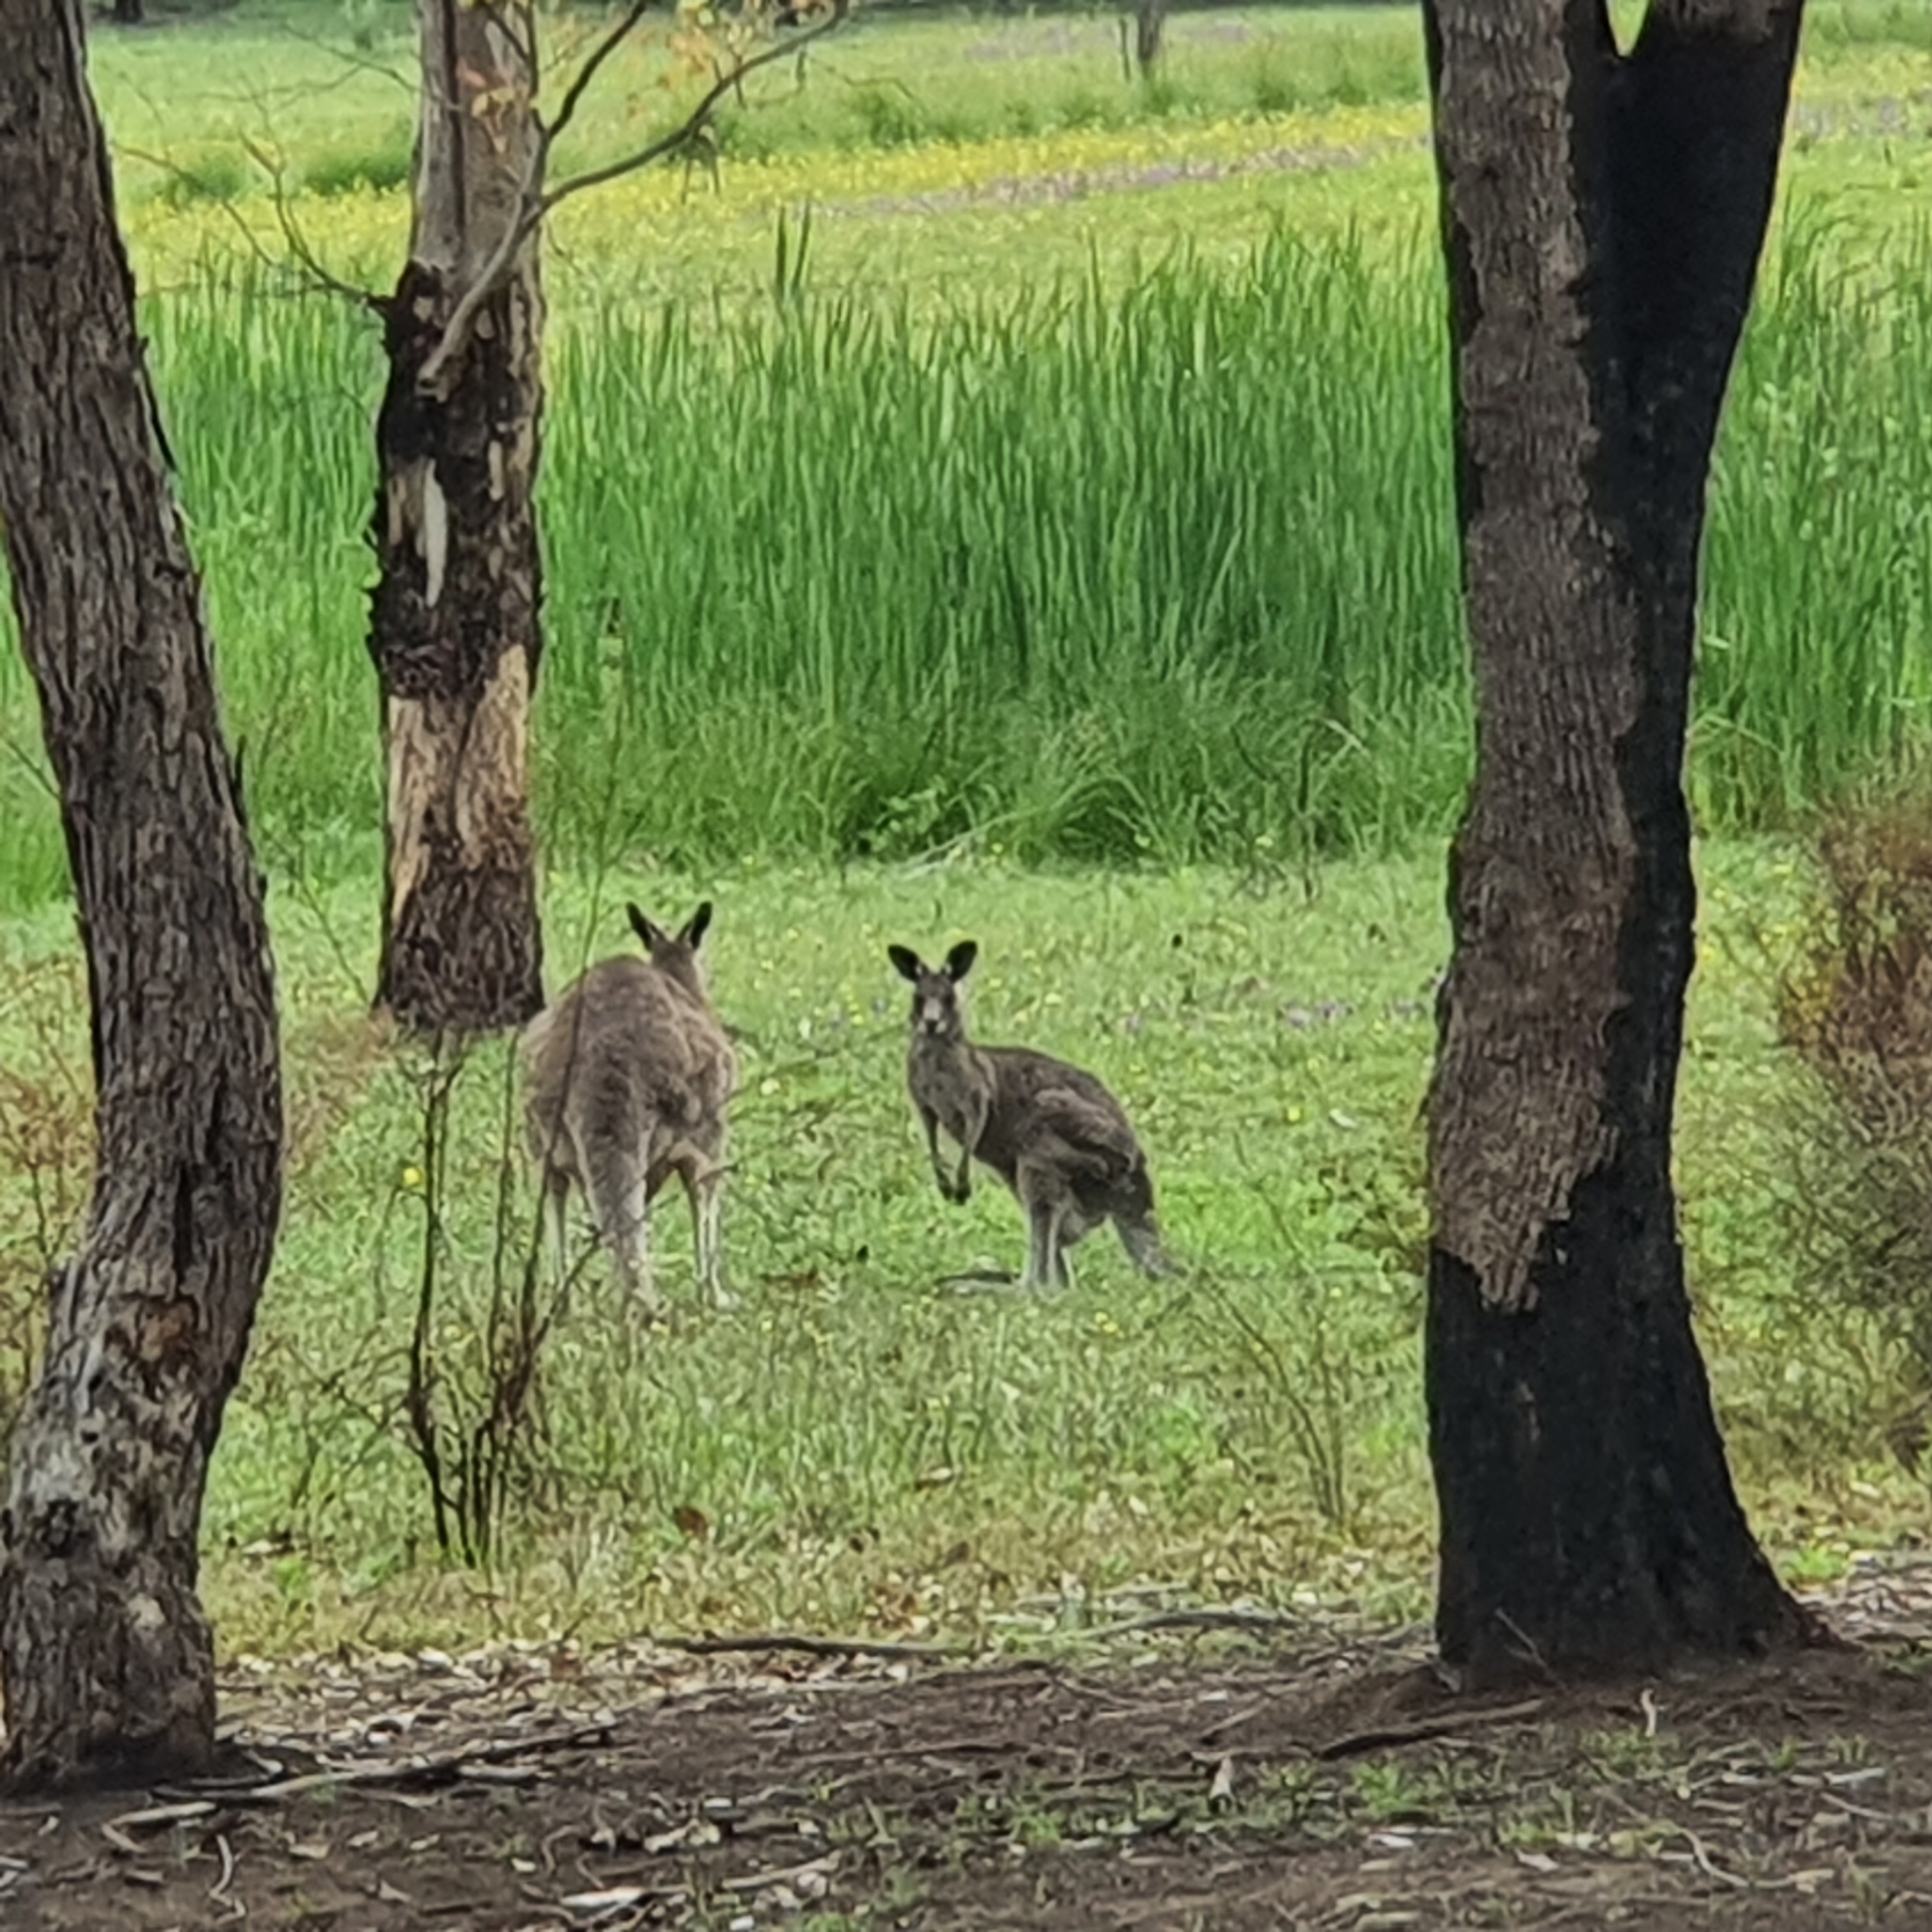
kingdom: Animalia
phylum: Chordata
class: Mammalia
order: Diprotodontia
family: Macropodidae
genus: Macropus
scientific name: Macropus giganteus
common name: Eastern grey kangaroo
